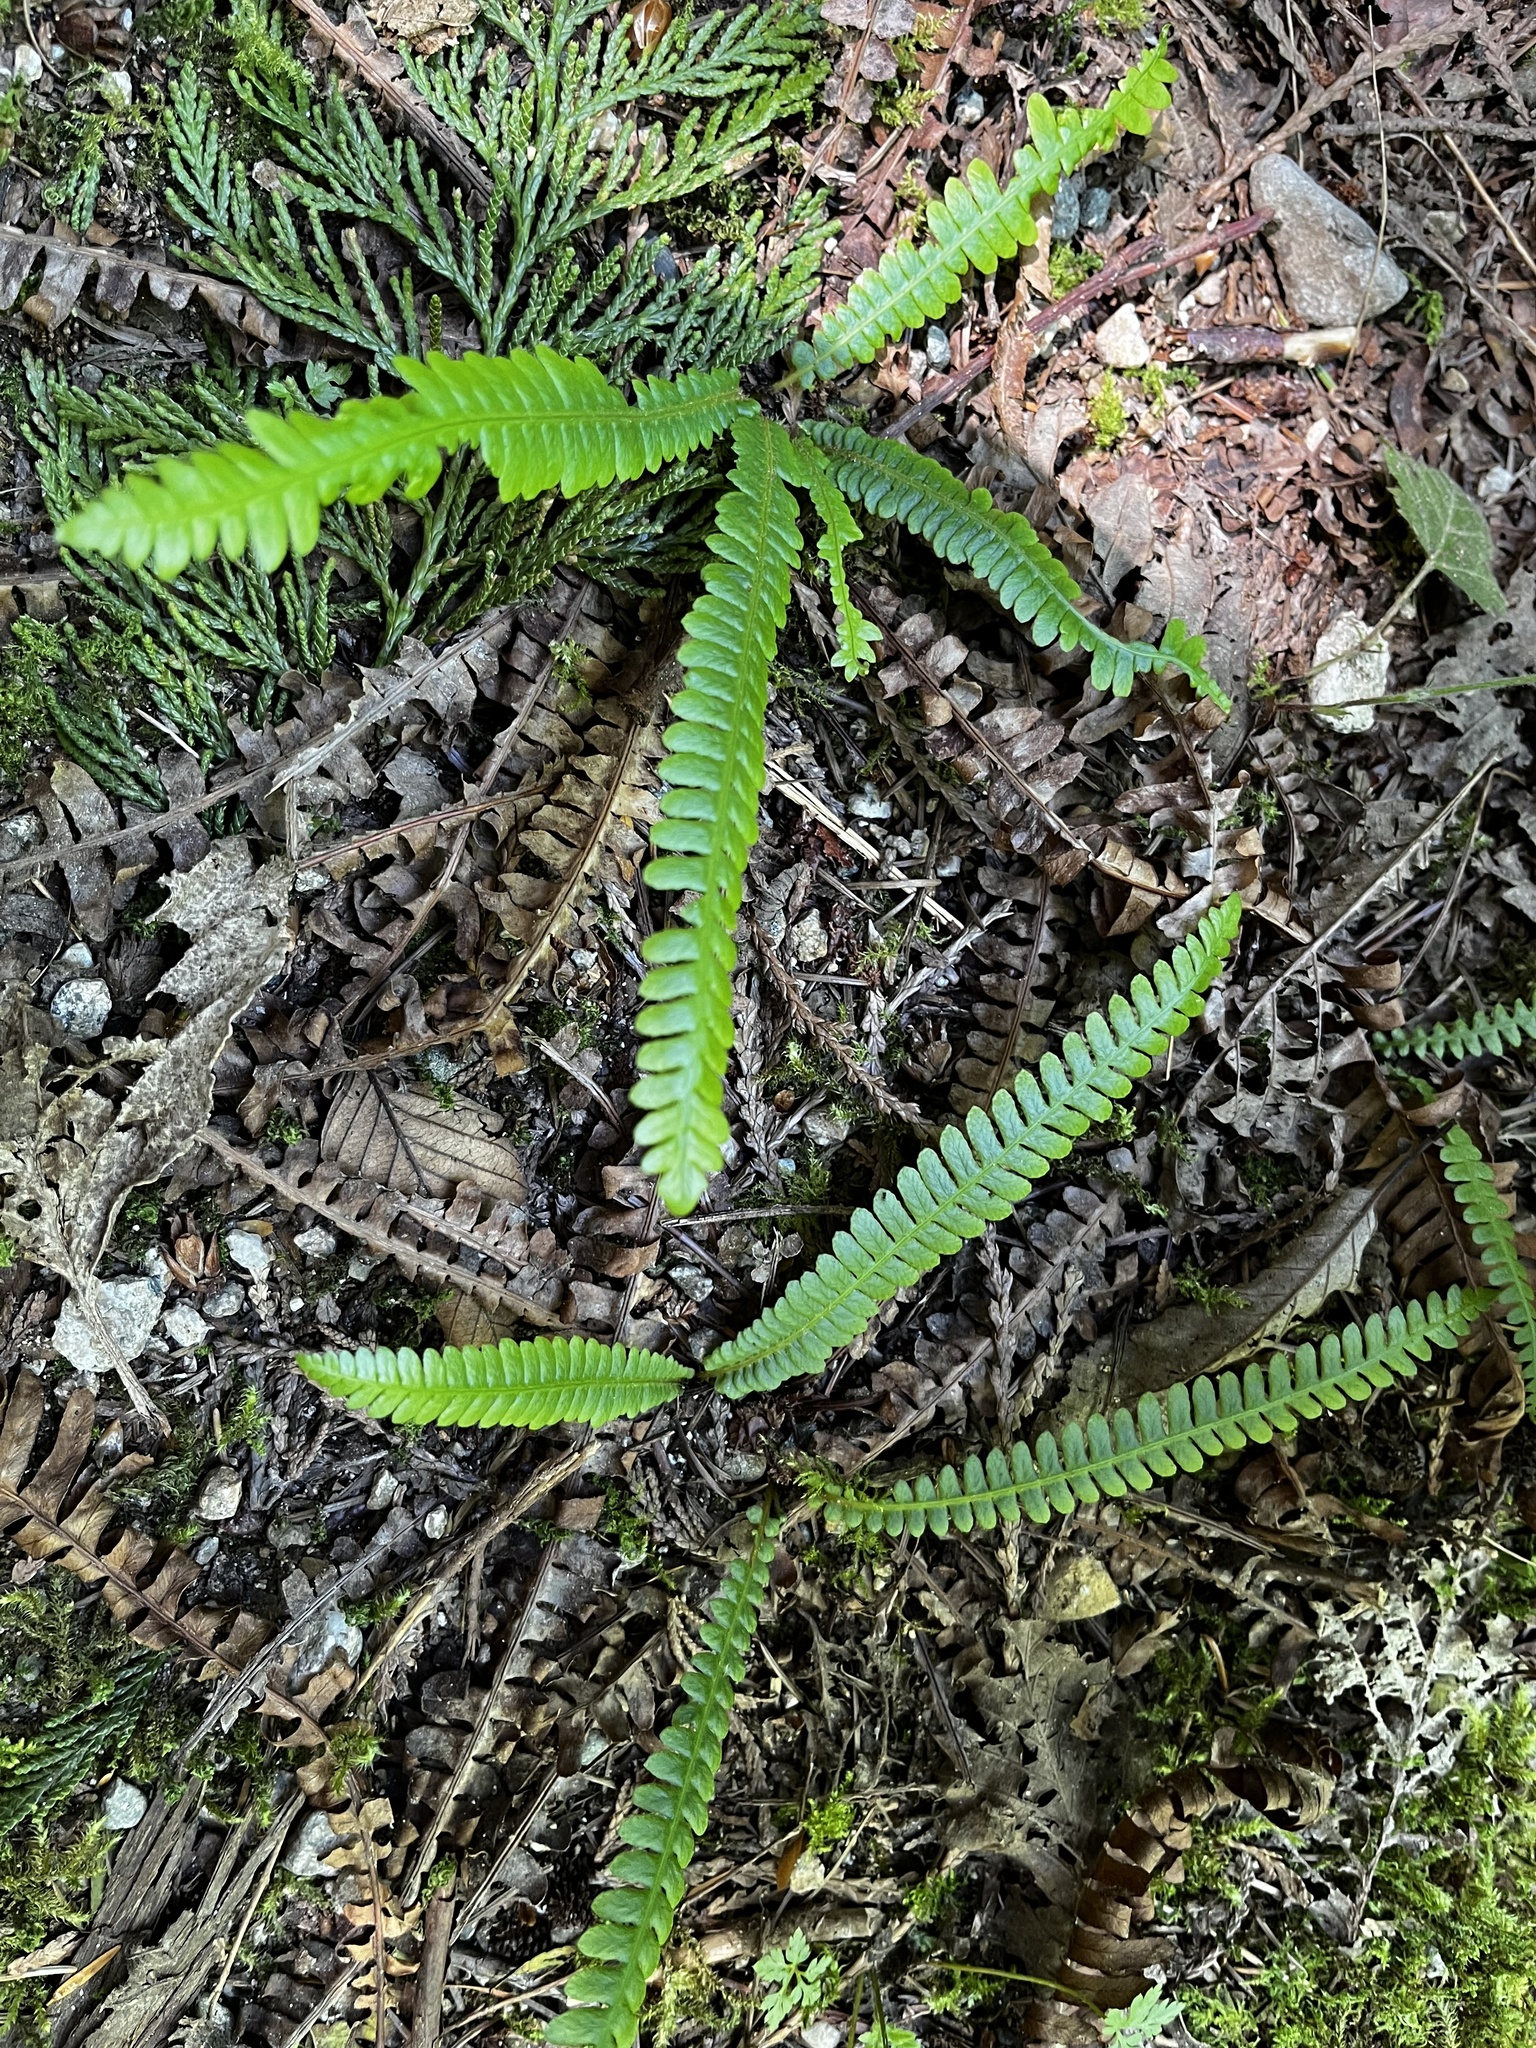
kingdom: Plantae
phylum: Tracheophyta
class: Polypodiopsida
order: Polypodiales
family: Blechnaceae
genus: Struthiopteris
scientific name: Struthiopteris spicant
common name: Deer fern
